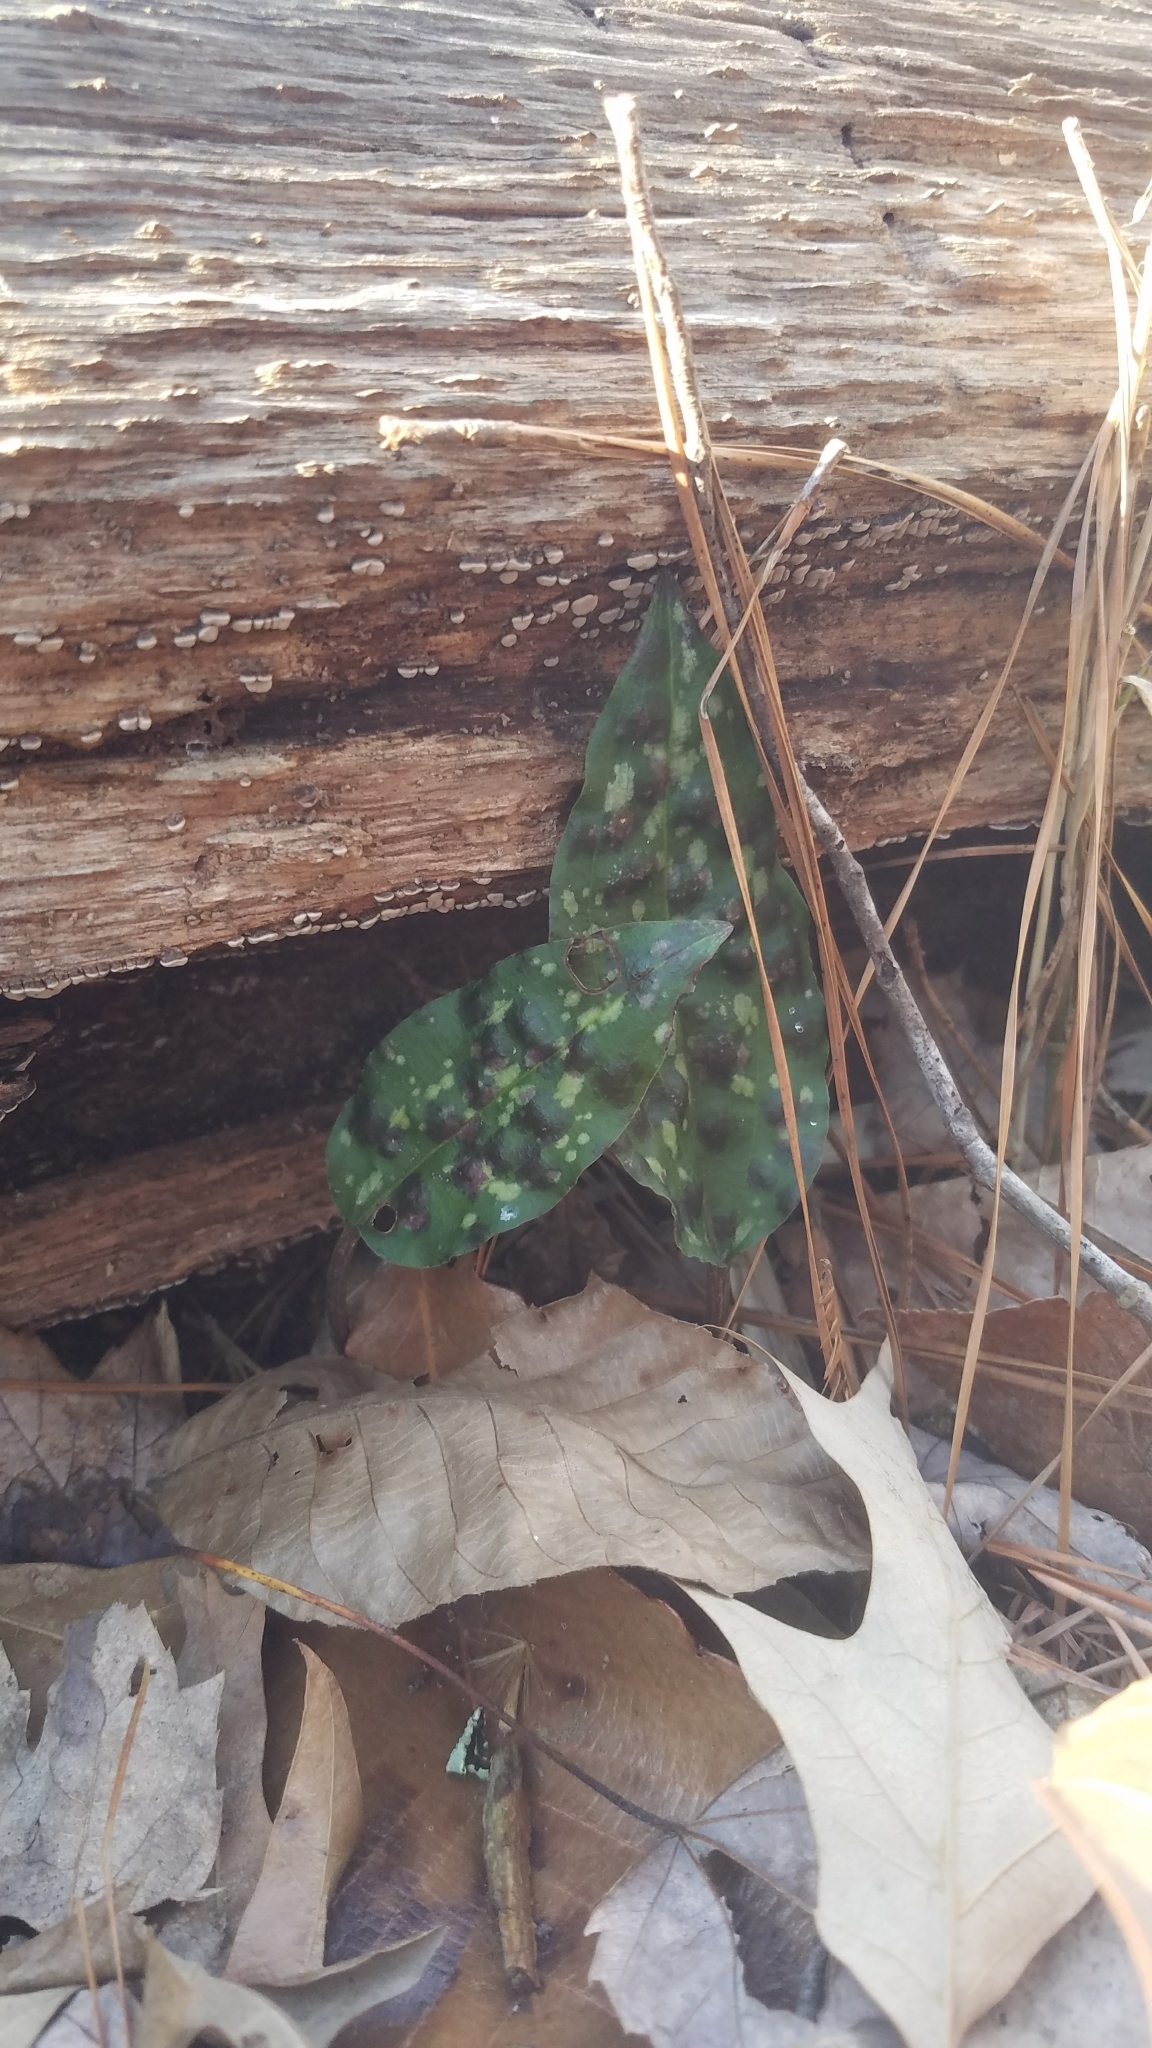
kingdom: Plantae
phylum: Tracheophyta
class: Liliopsida
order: Asparagales
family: Orchidaceae
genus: Tipularia
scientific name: Tipularia discolor
